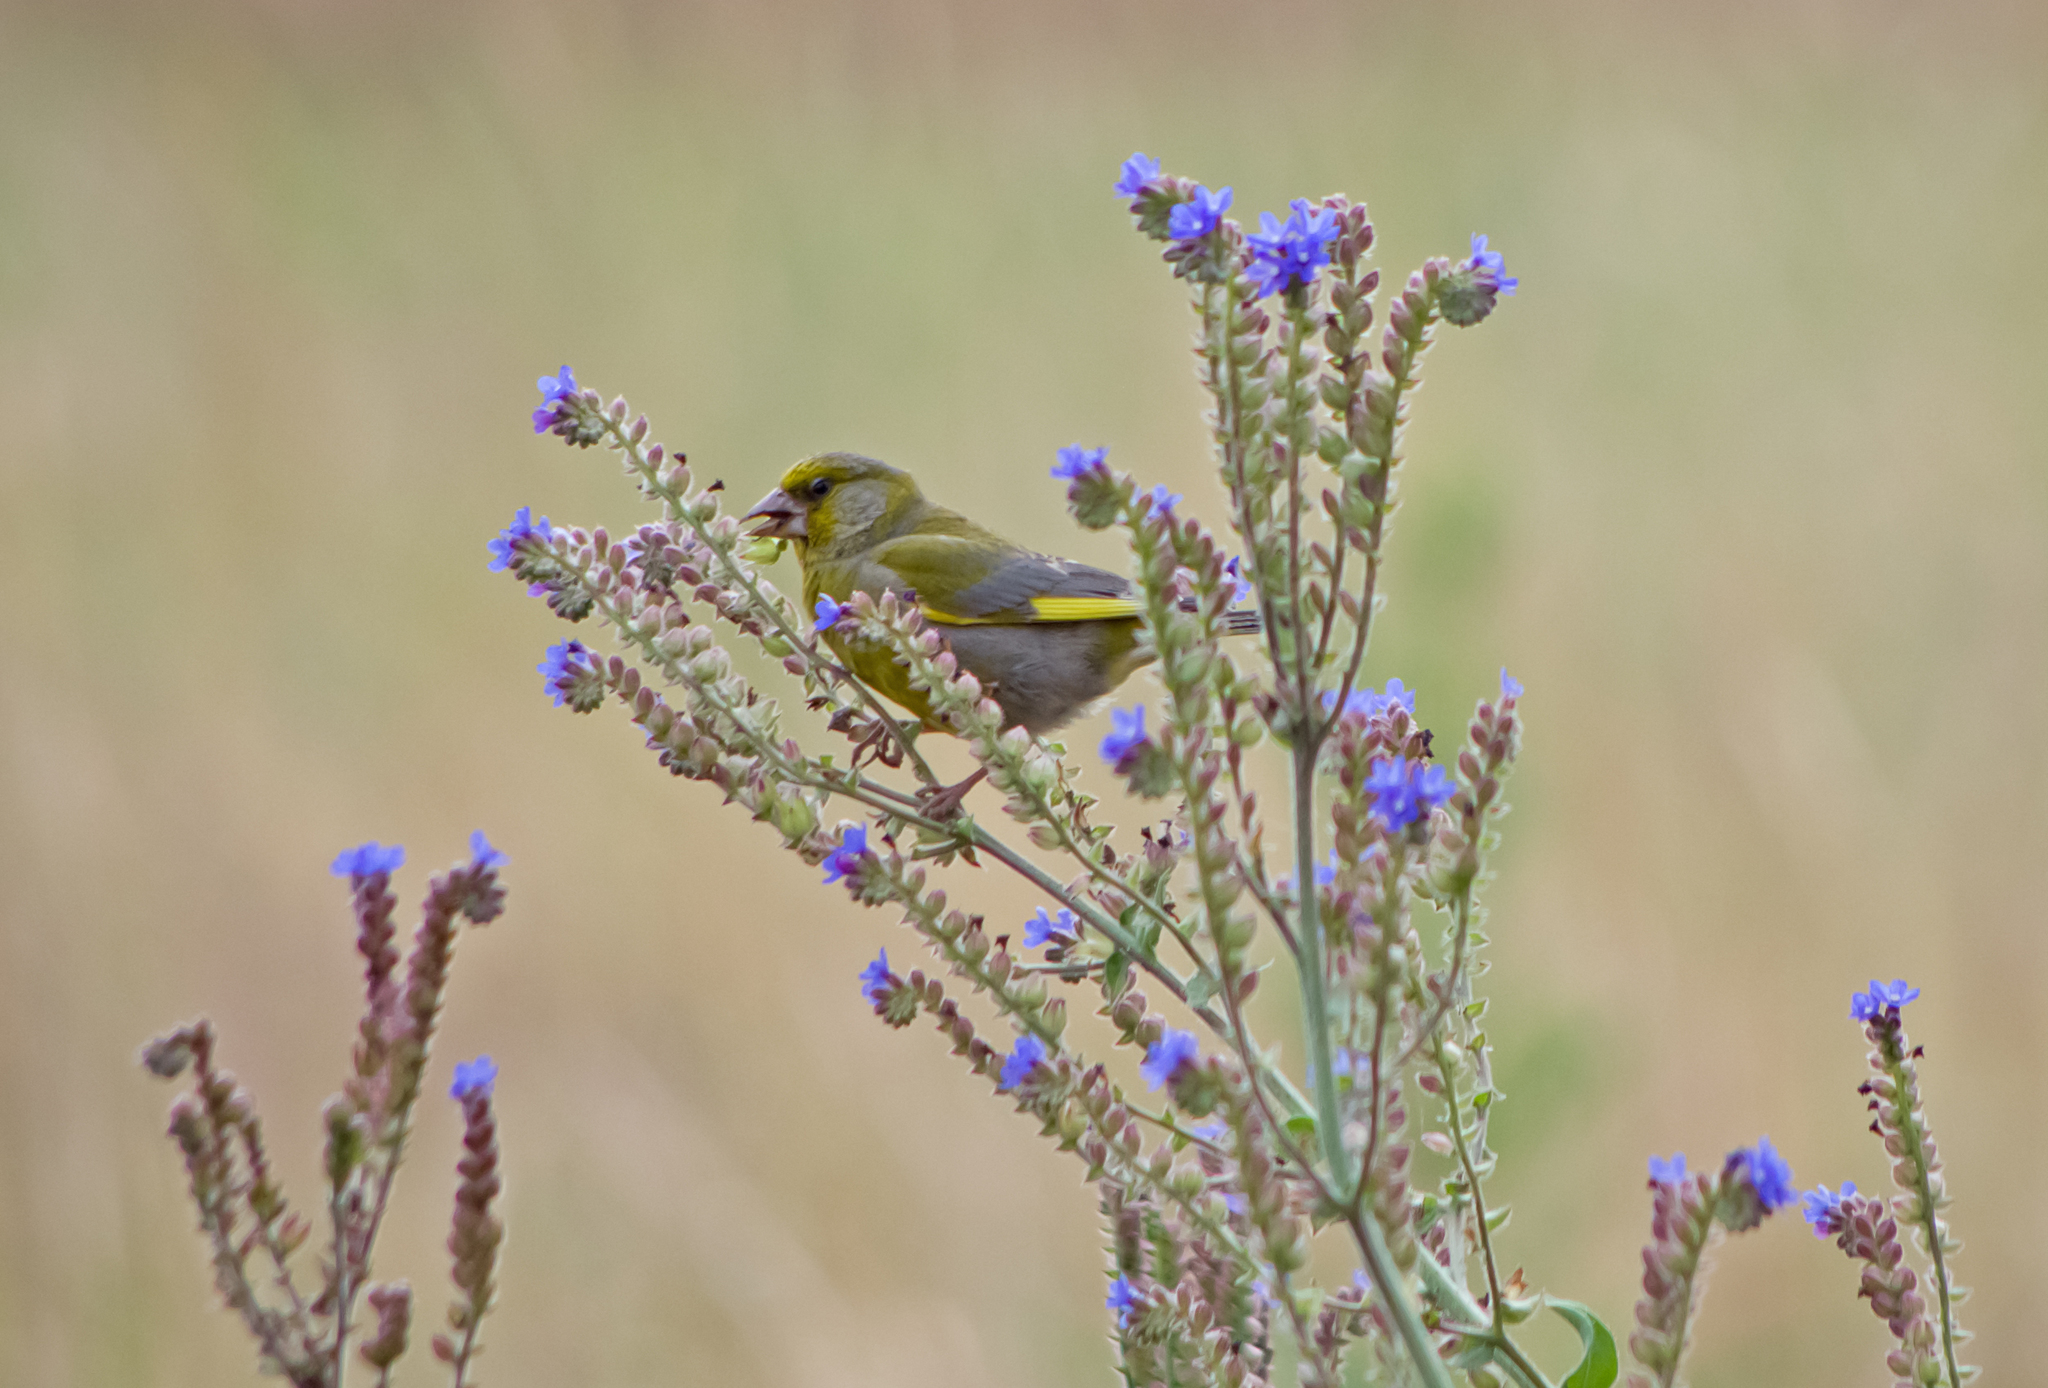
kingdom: Plantae
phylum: Tracheophyta
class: Liliopsida
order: Poales
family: Poaceae
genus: Chloris
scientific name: Chloris chloris
